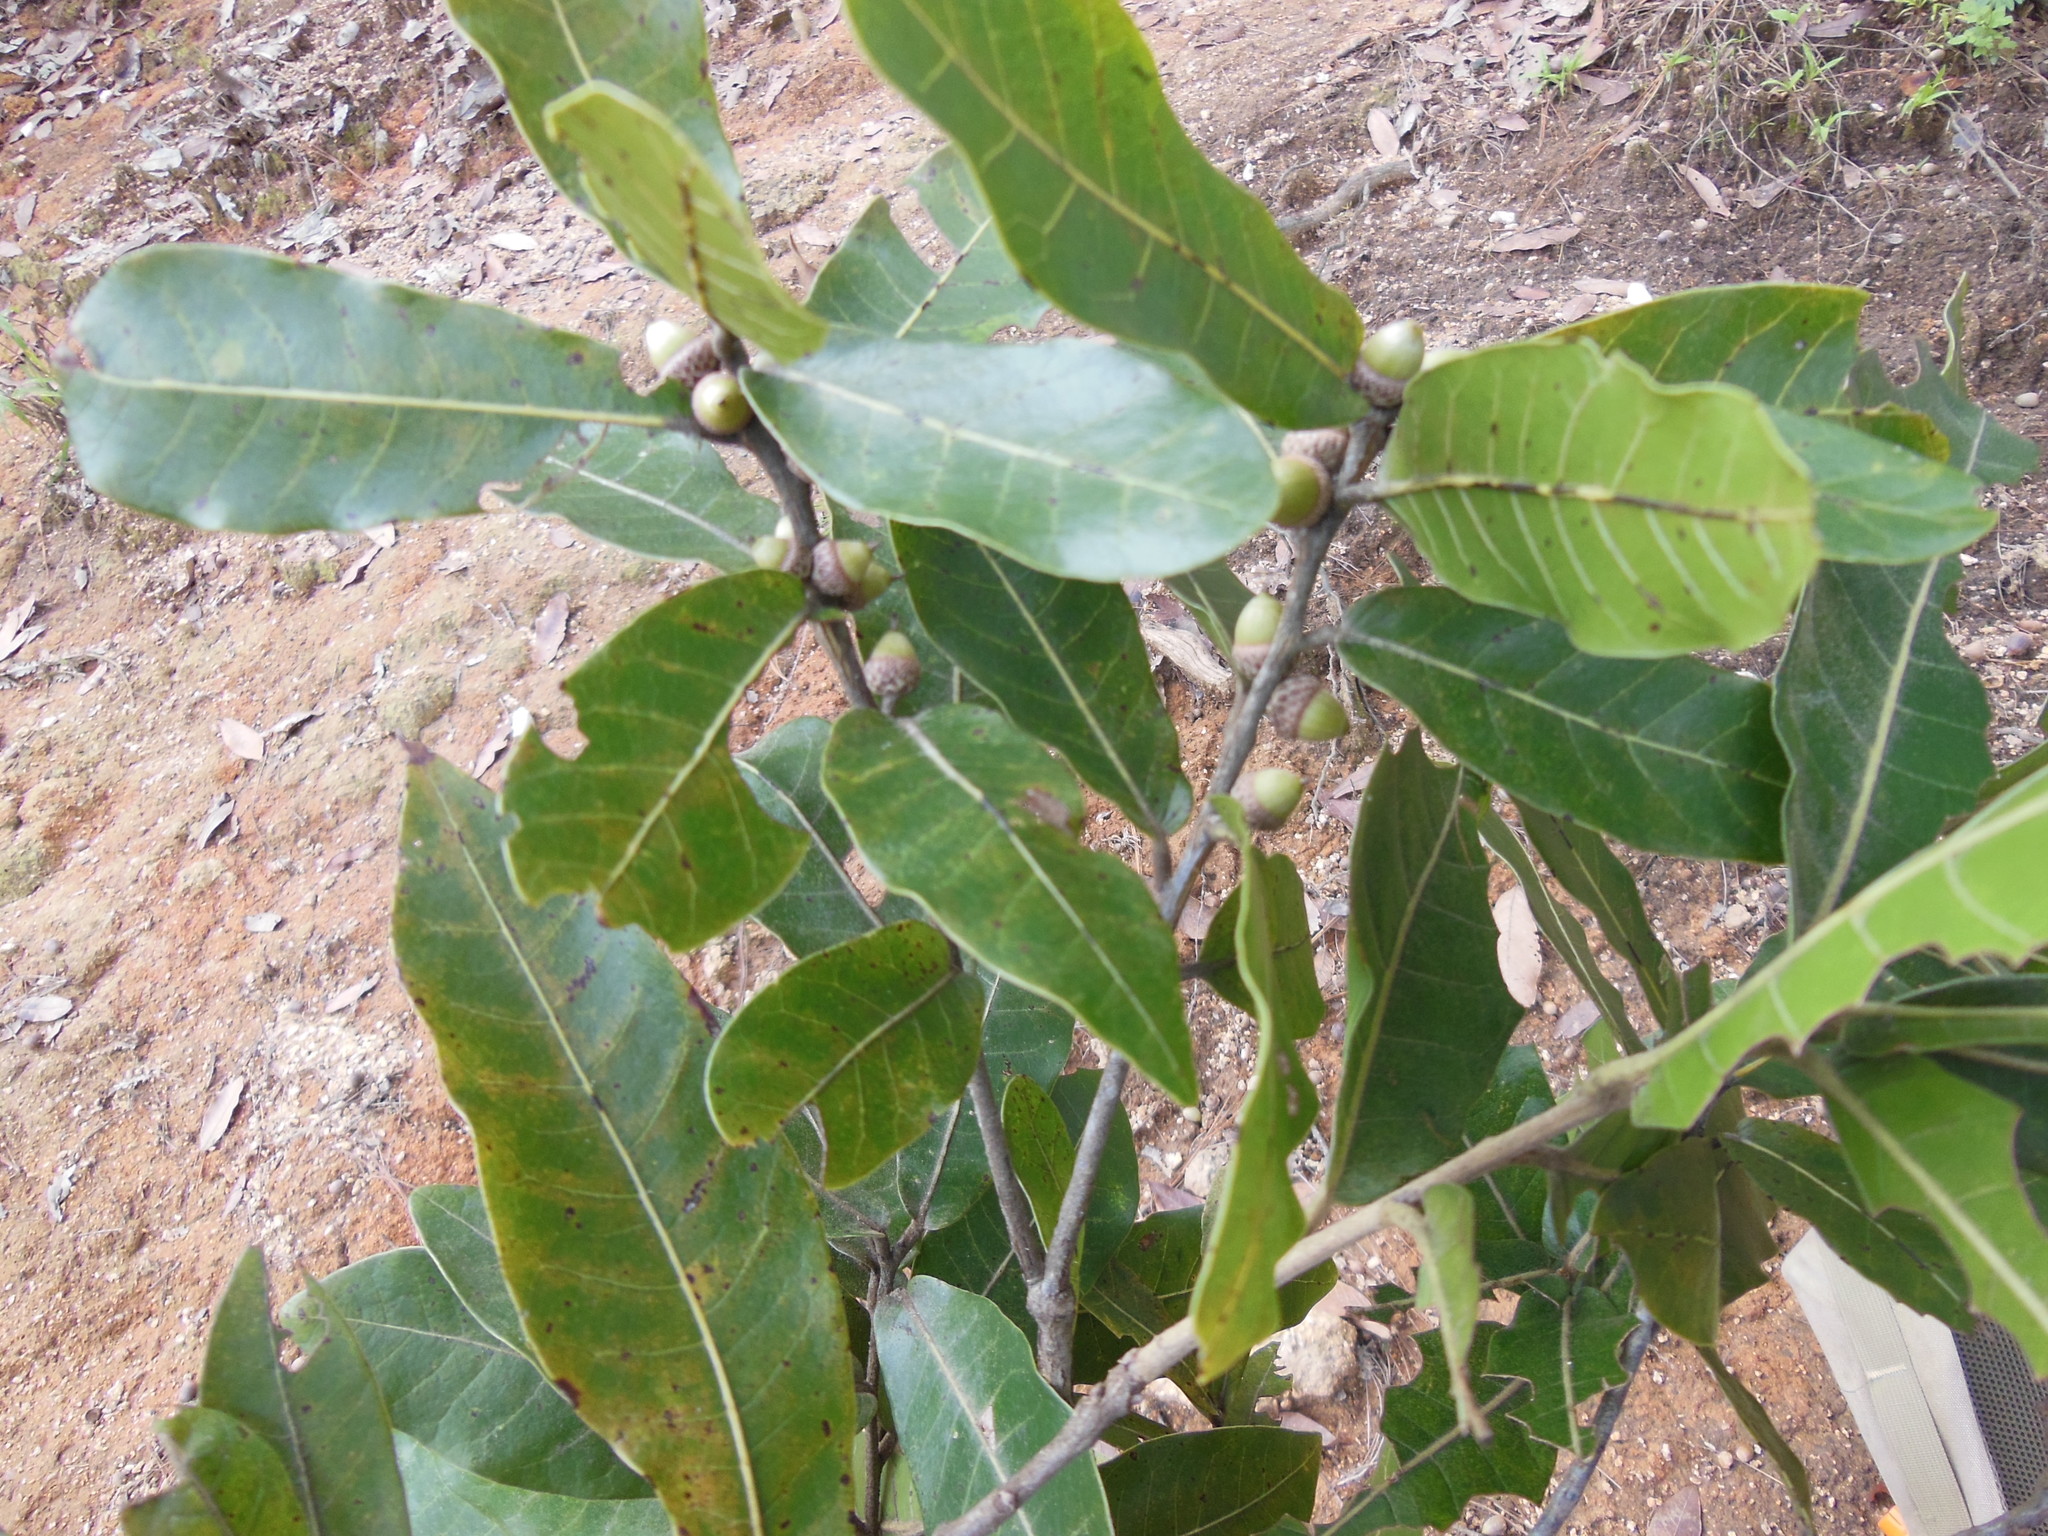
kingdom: Plantae
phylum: Tracheophyta
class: Magnoliopsida
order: Fagales
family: Fagaceae
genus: Quercus
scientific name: Quercus elliptica
